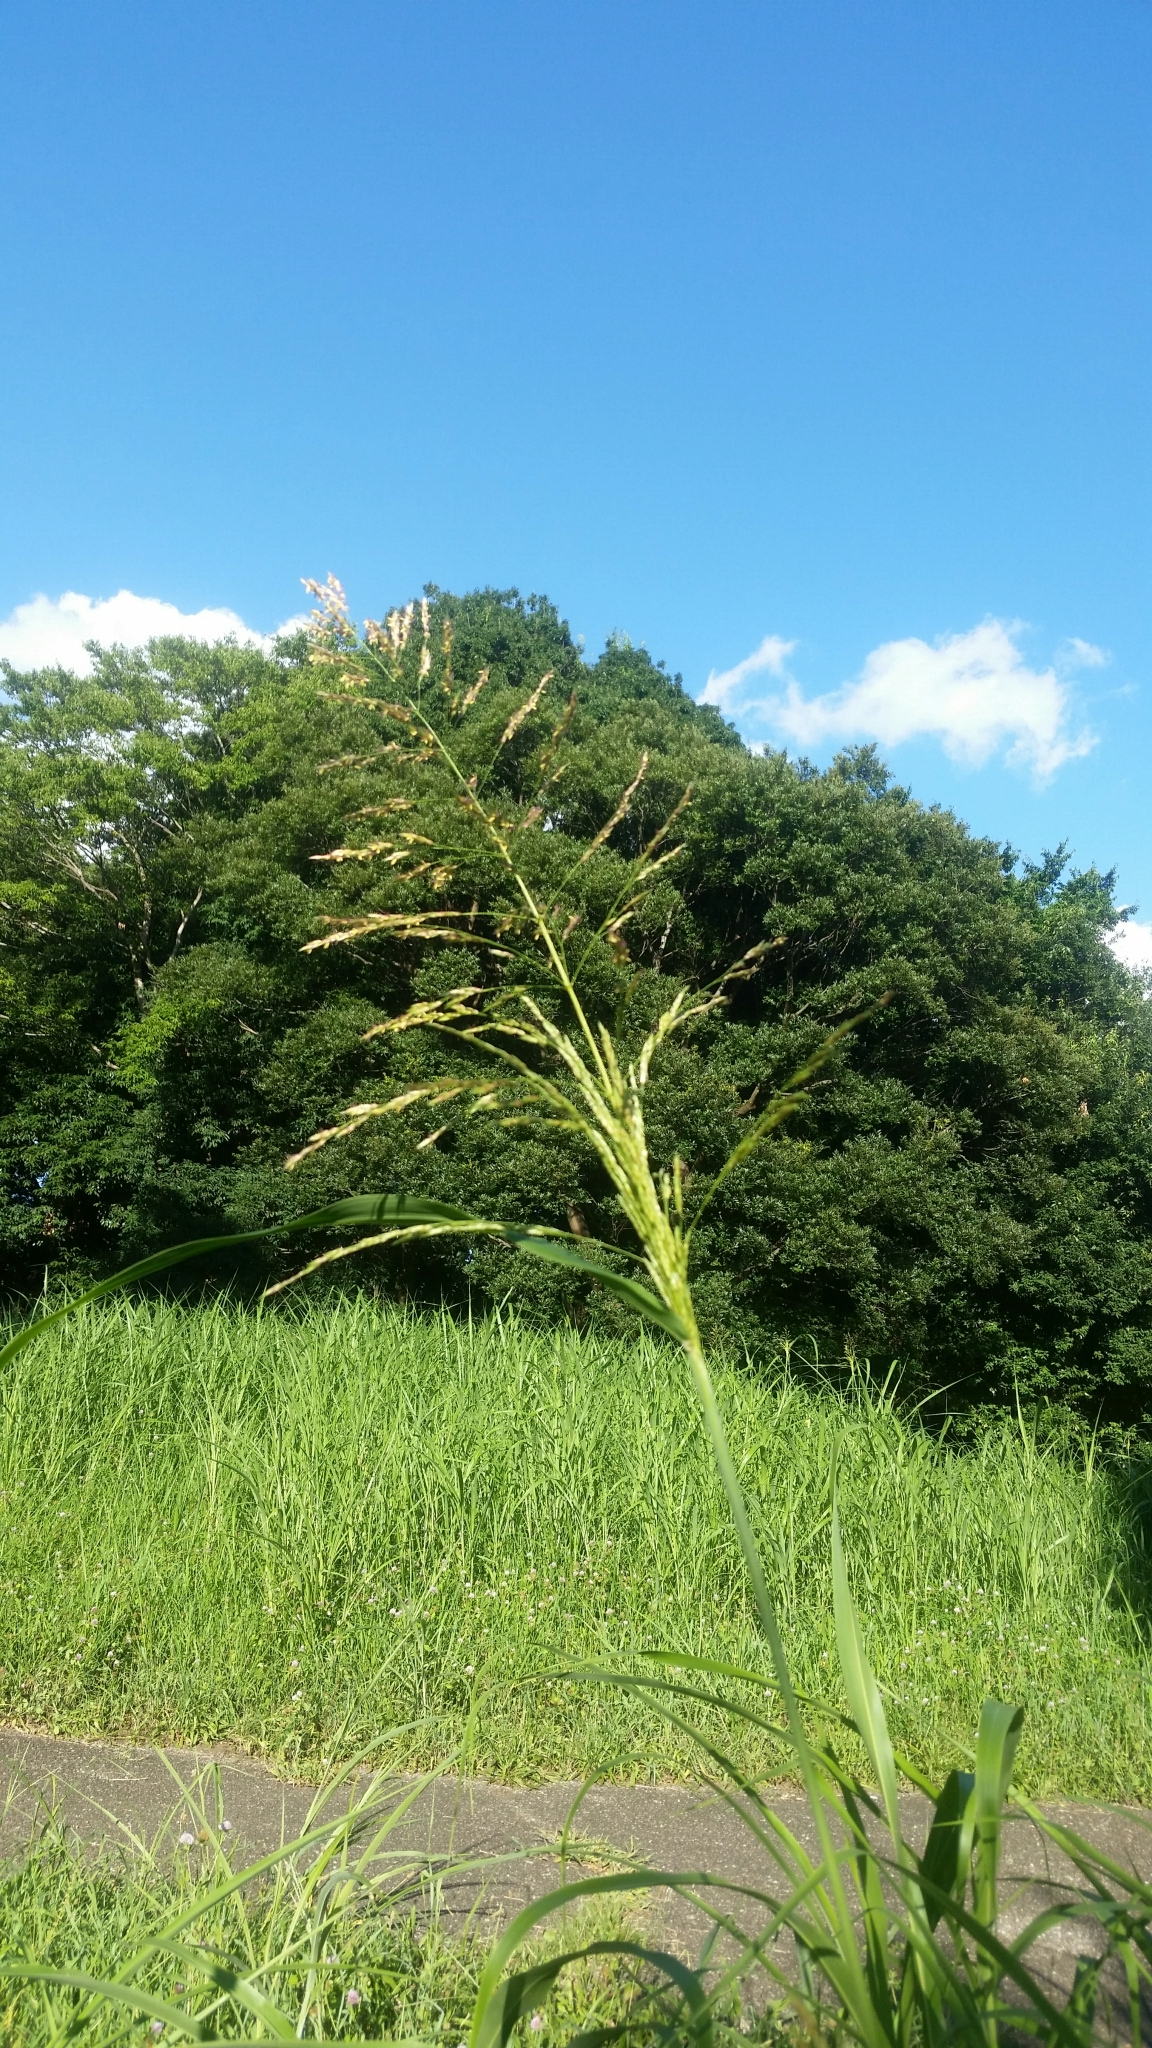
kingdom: Plantae
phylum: Tracheophyta
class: Liliopsida
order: Poales
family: Poaceae
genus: Sorghum
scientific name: Sorghum halepense
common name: Johnson-grass
